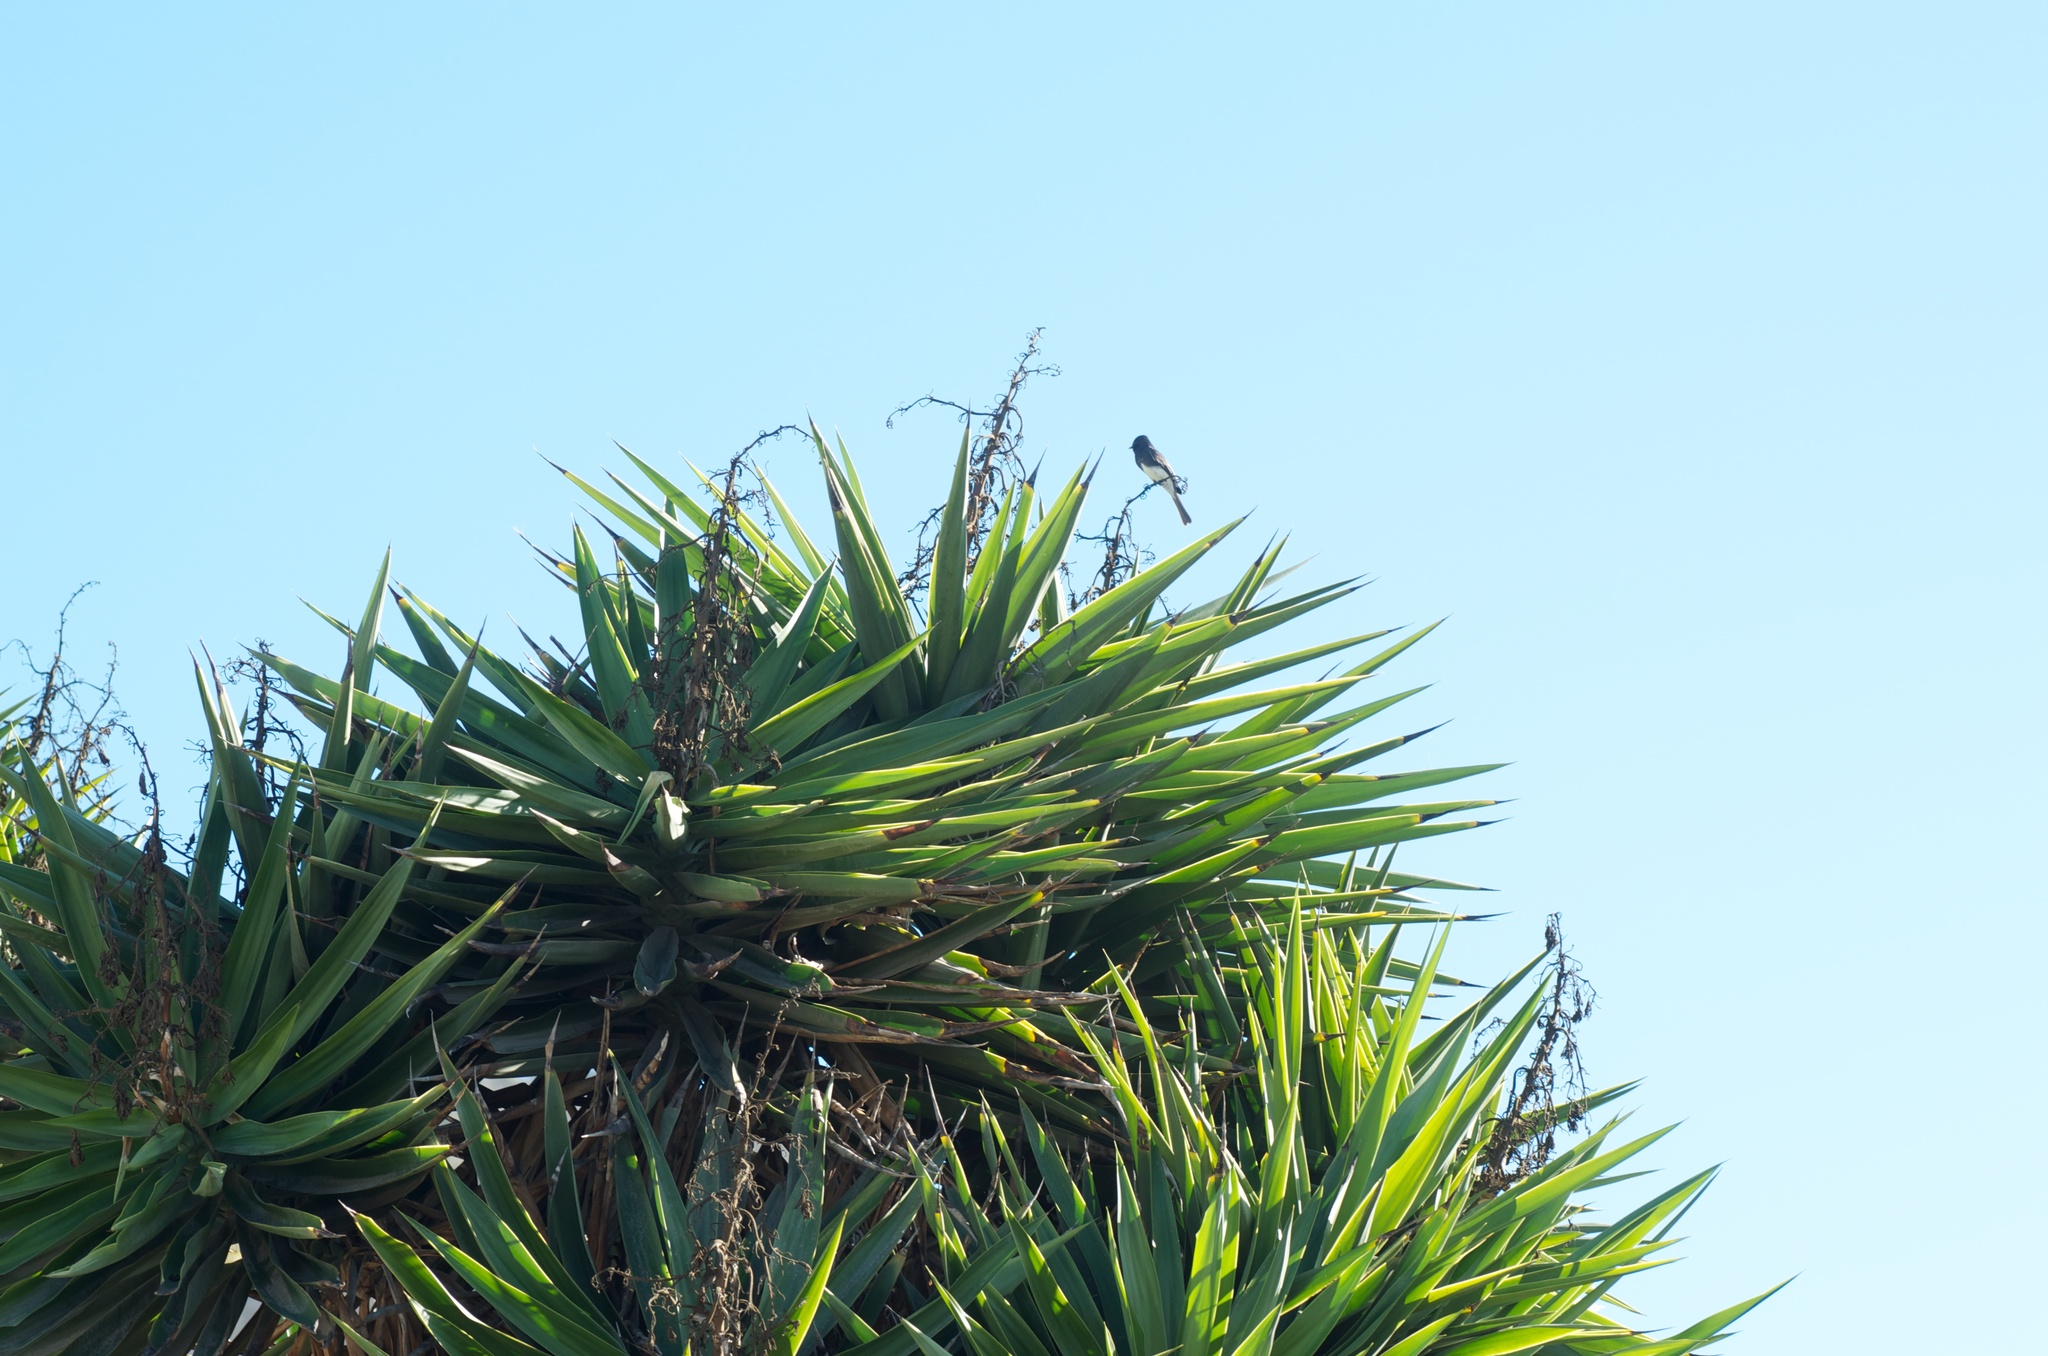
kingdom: Animalia
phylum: Chordata
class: Aves
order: Passeriformes
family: Tyrannidae
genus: Sayornis
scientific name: Sayornis nigricans
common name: Black phoebe
